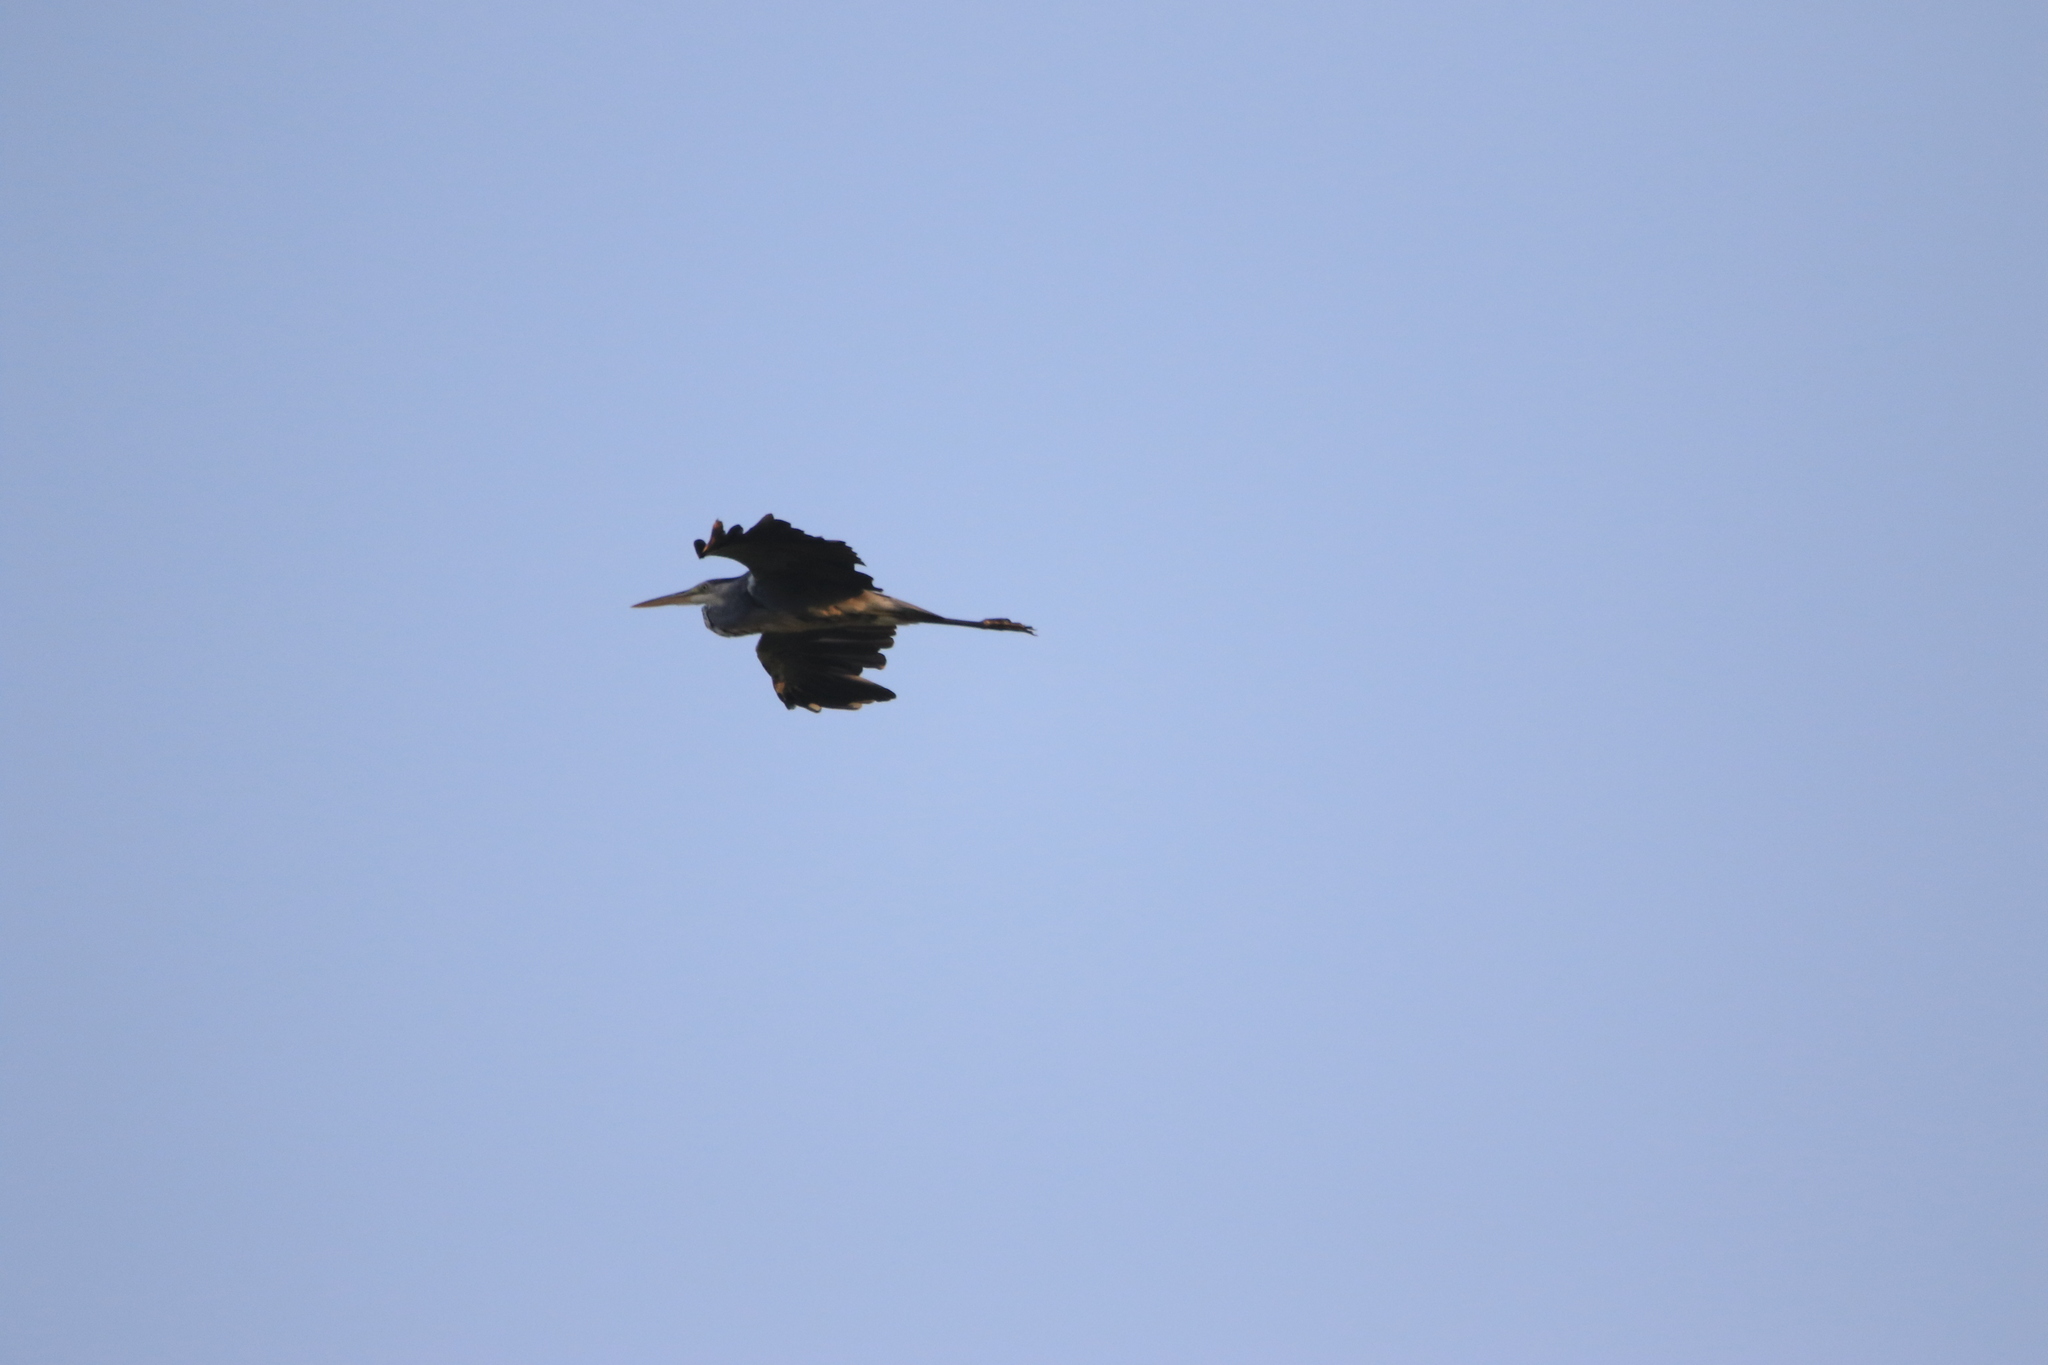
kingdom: Animalia
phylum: Chordata
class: Aves
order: Pelecaniformes
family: Ardeidae
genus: Ardea
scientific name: Ardea cinerea
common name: Grey heron
